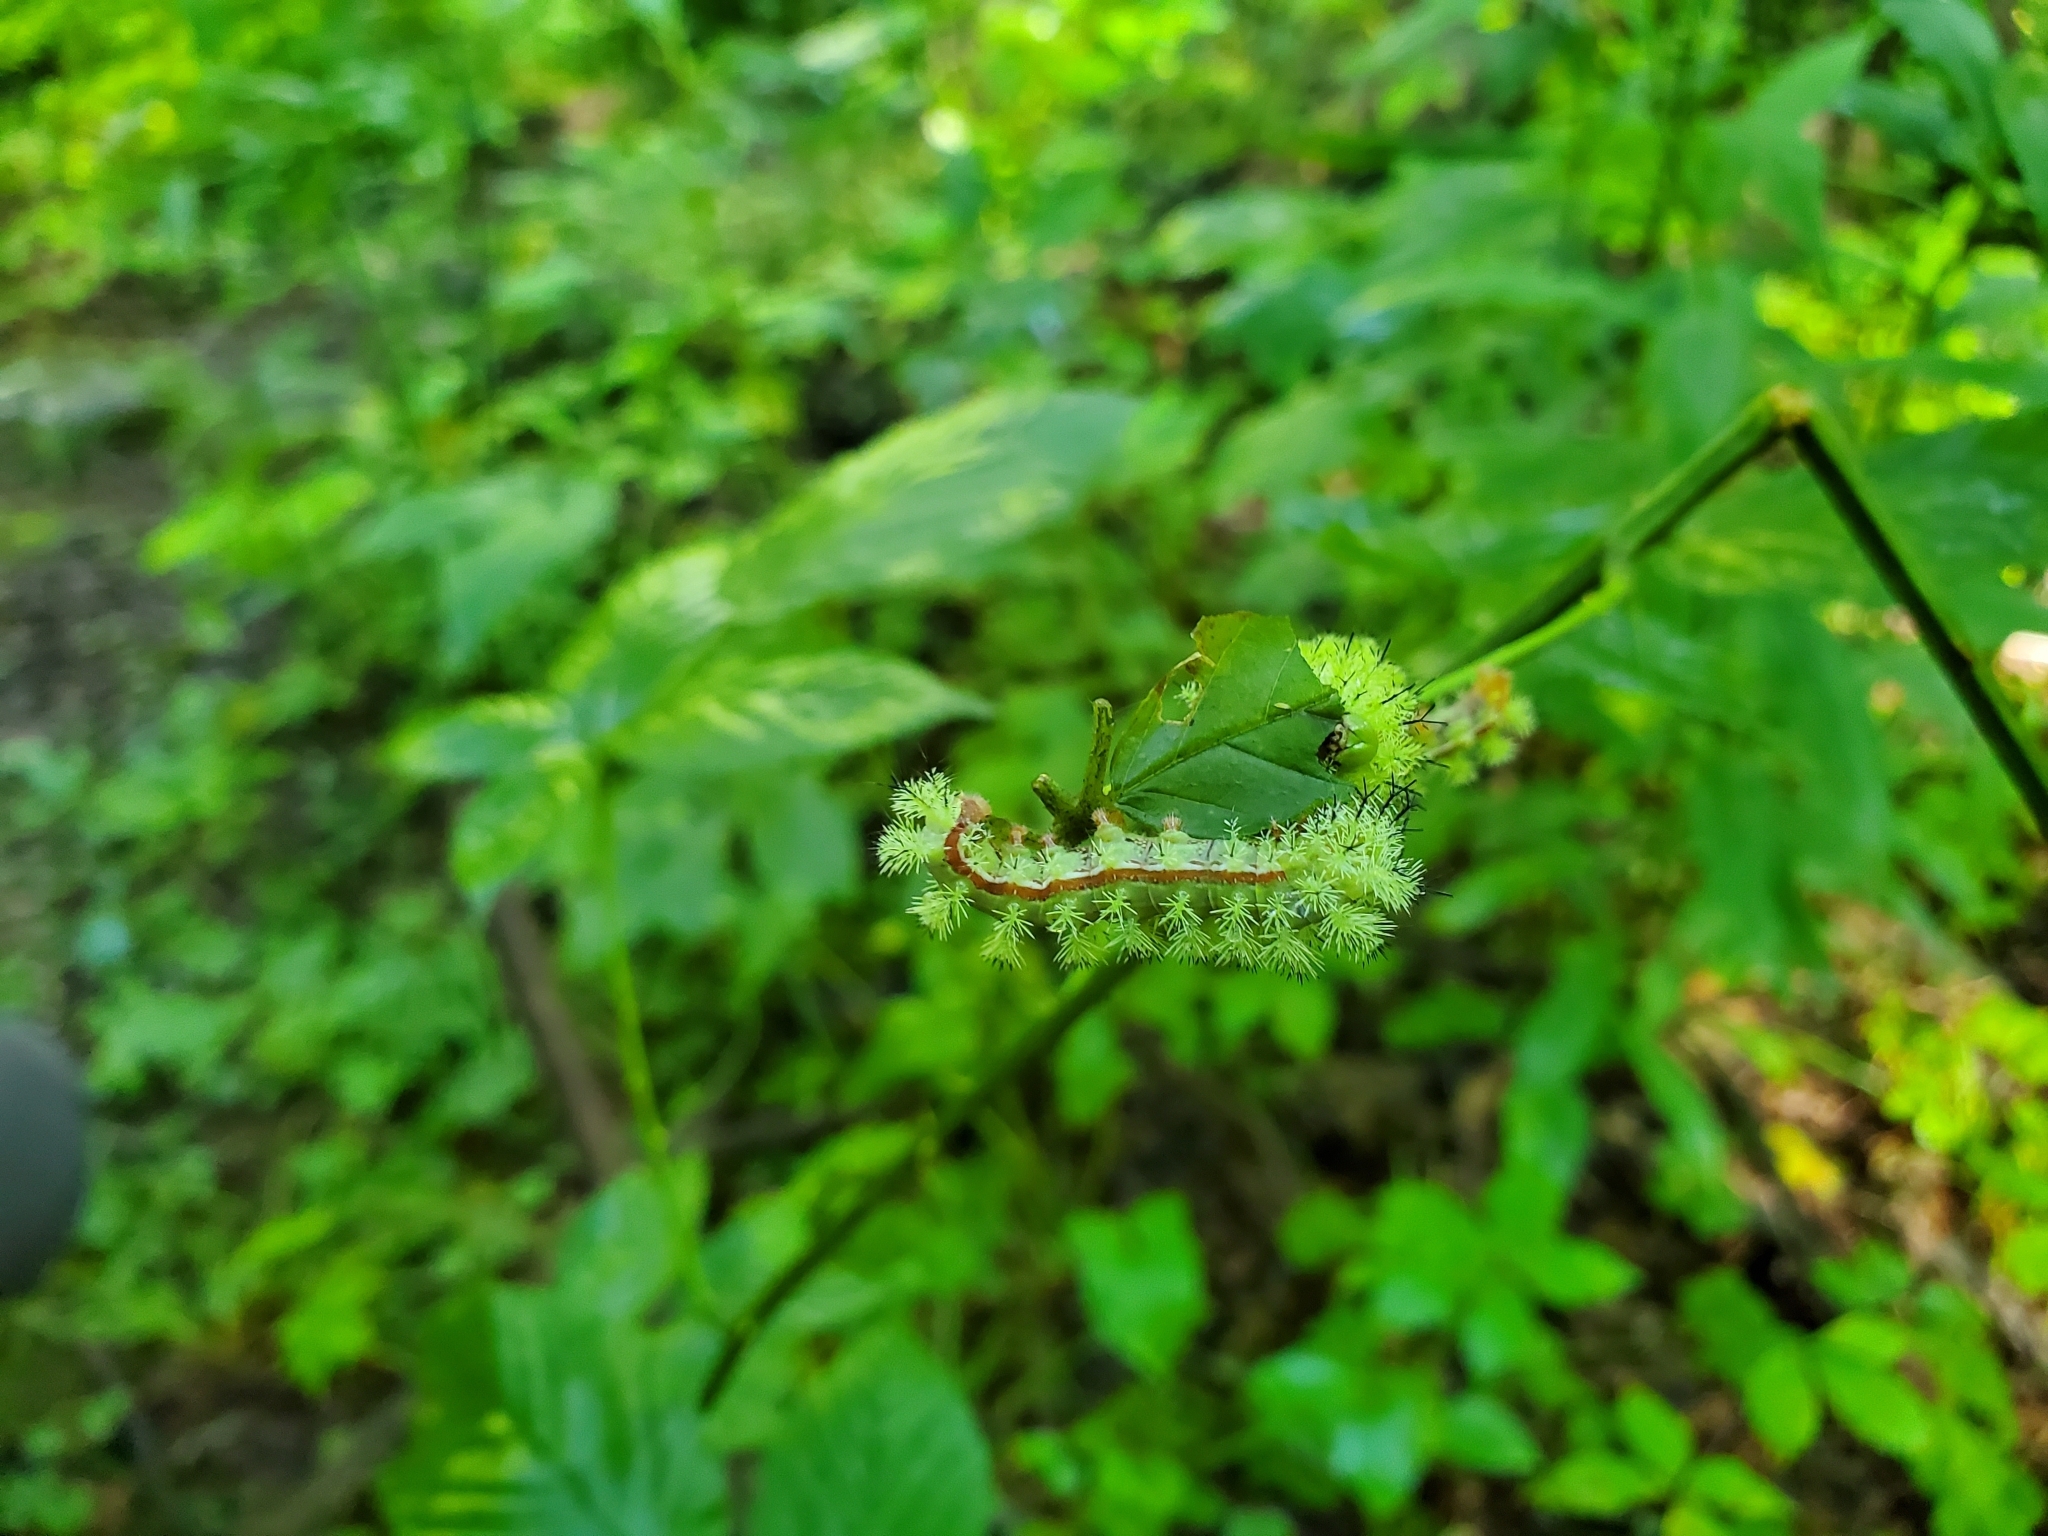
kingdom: Animalia
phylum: Arthropoda
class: Insecta
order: Lepidoptera
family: Saturniidae
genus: Automeris
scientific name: Automeris io
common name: Io moth
